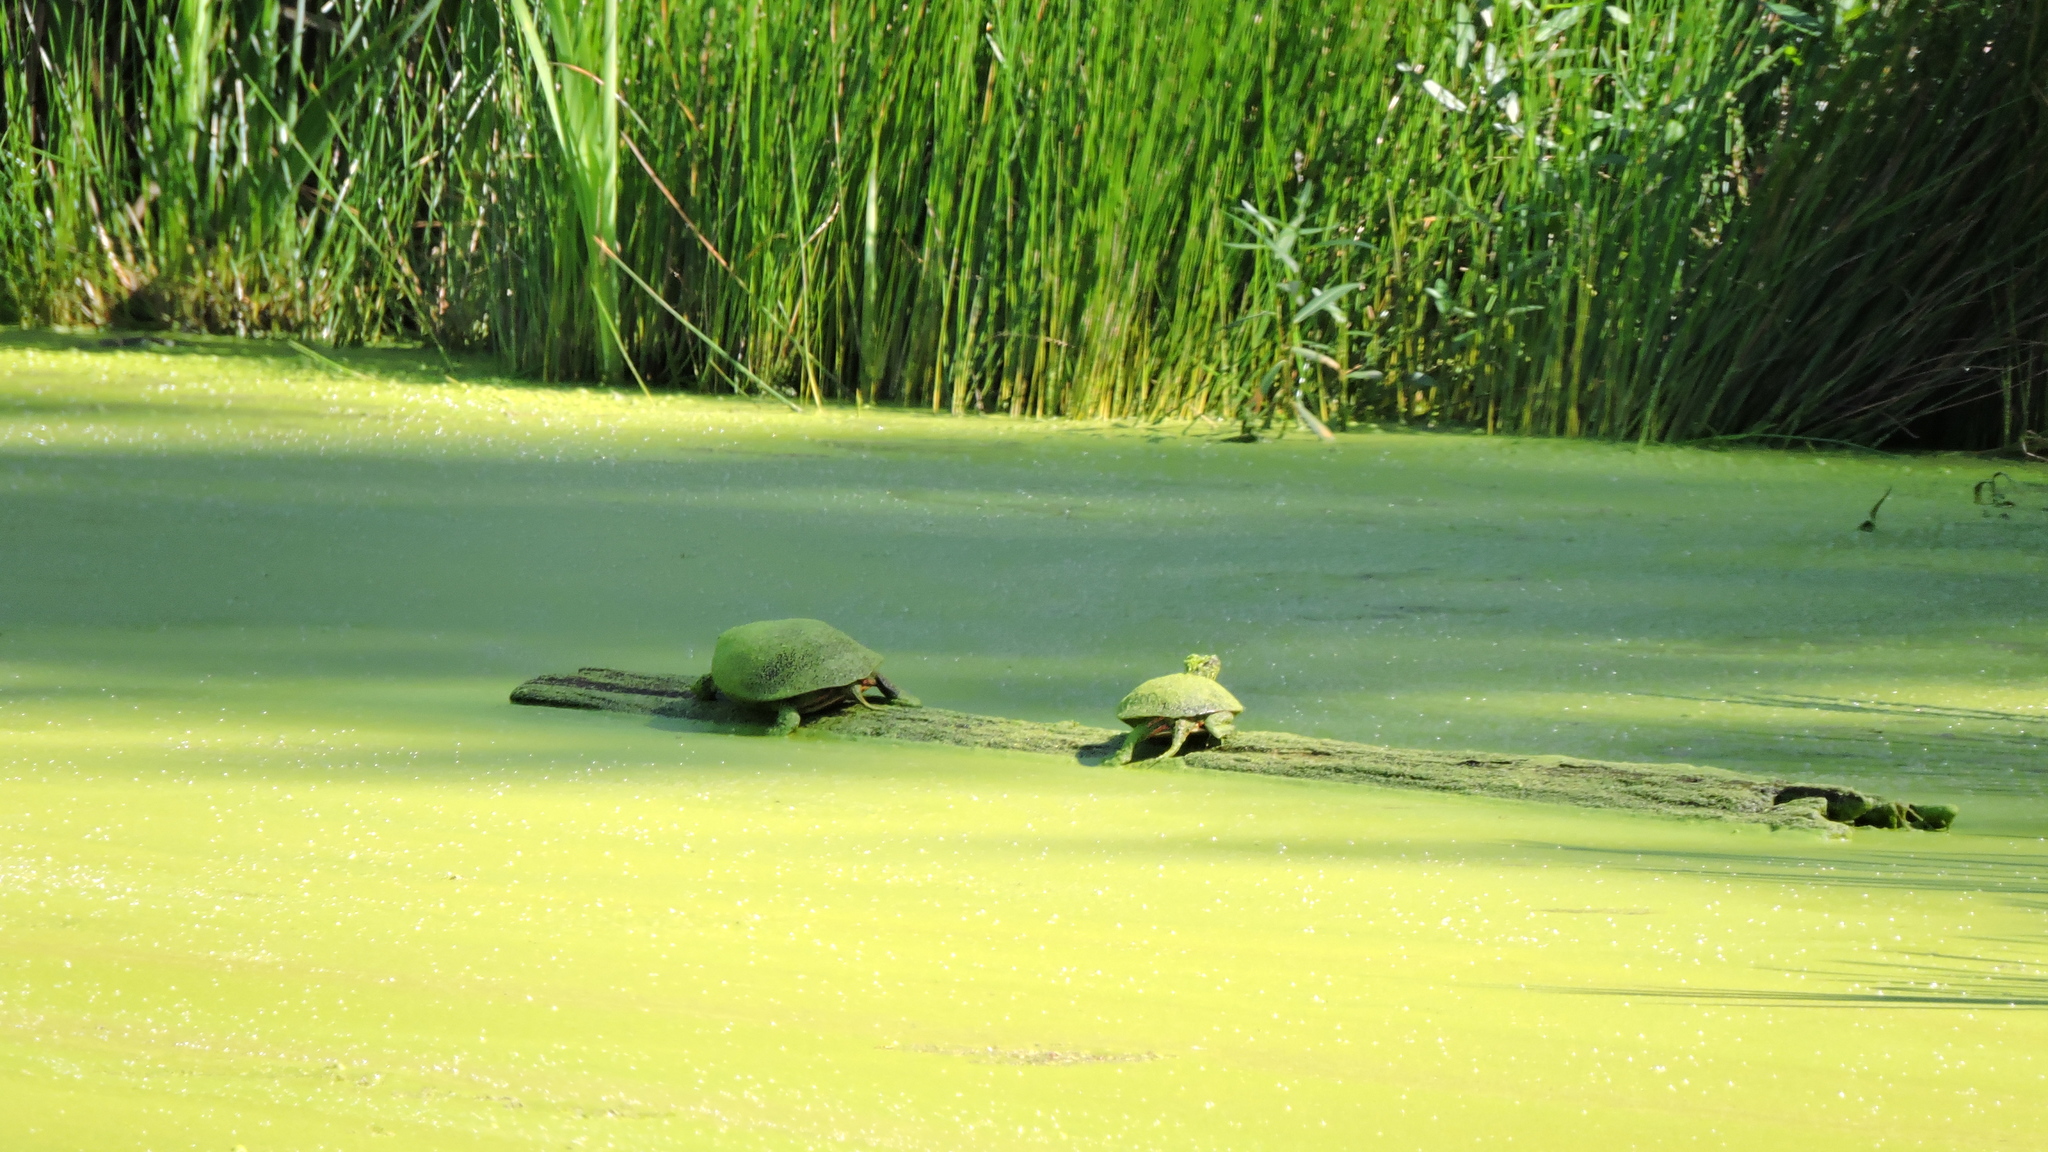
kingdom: Animalia
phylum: Chordata
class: Testudines
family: Emydidae
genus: Chrysemys
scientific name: Chrysemys picta
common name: Painted turtle
